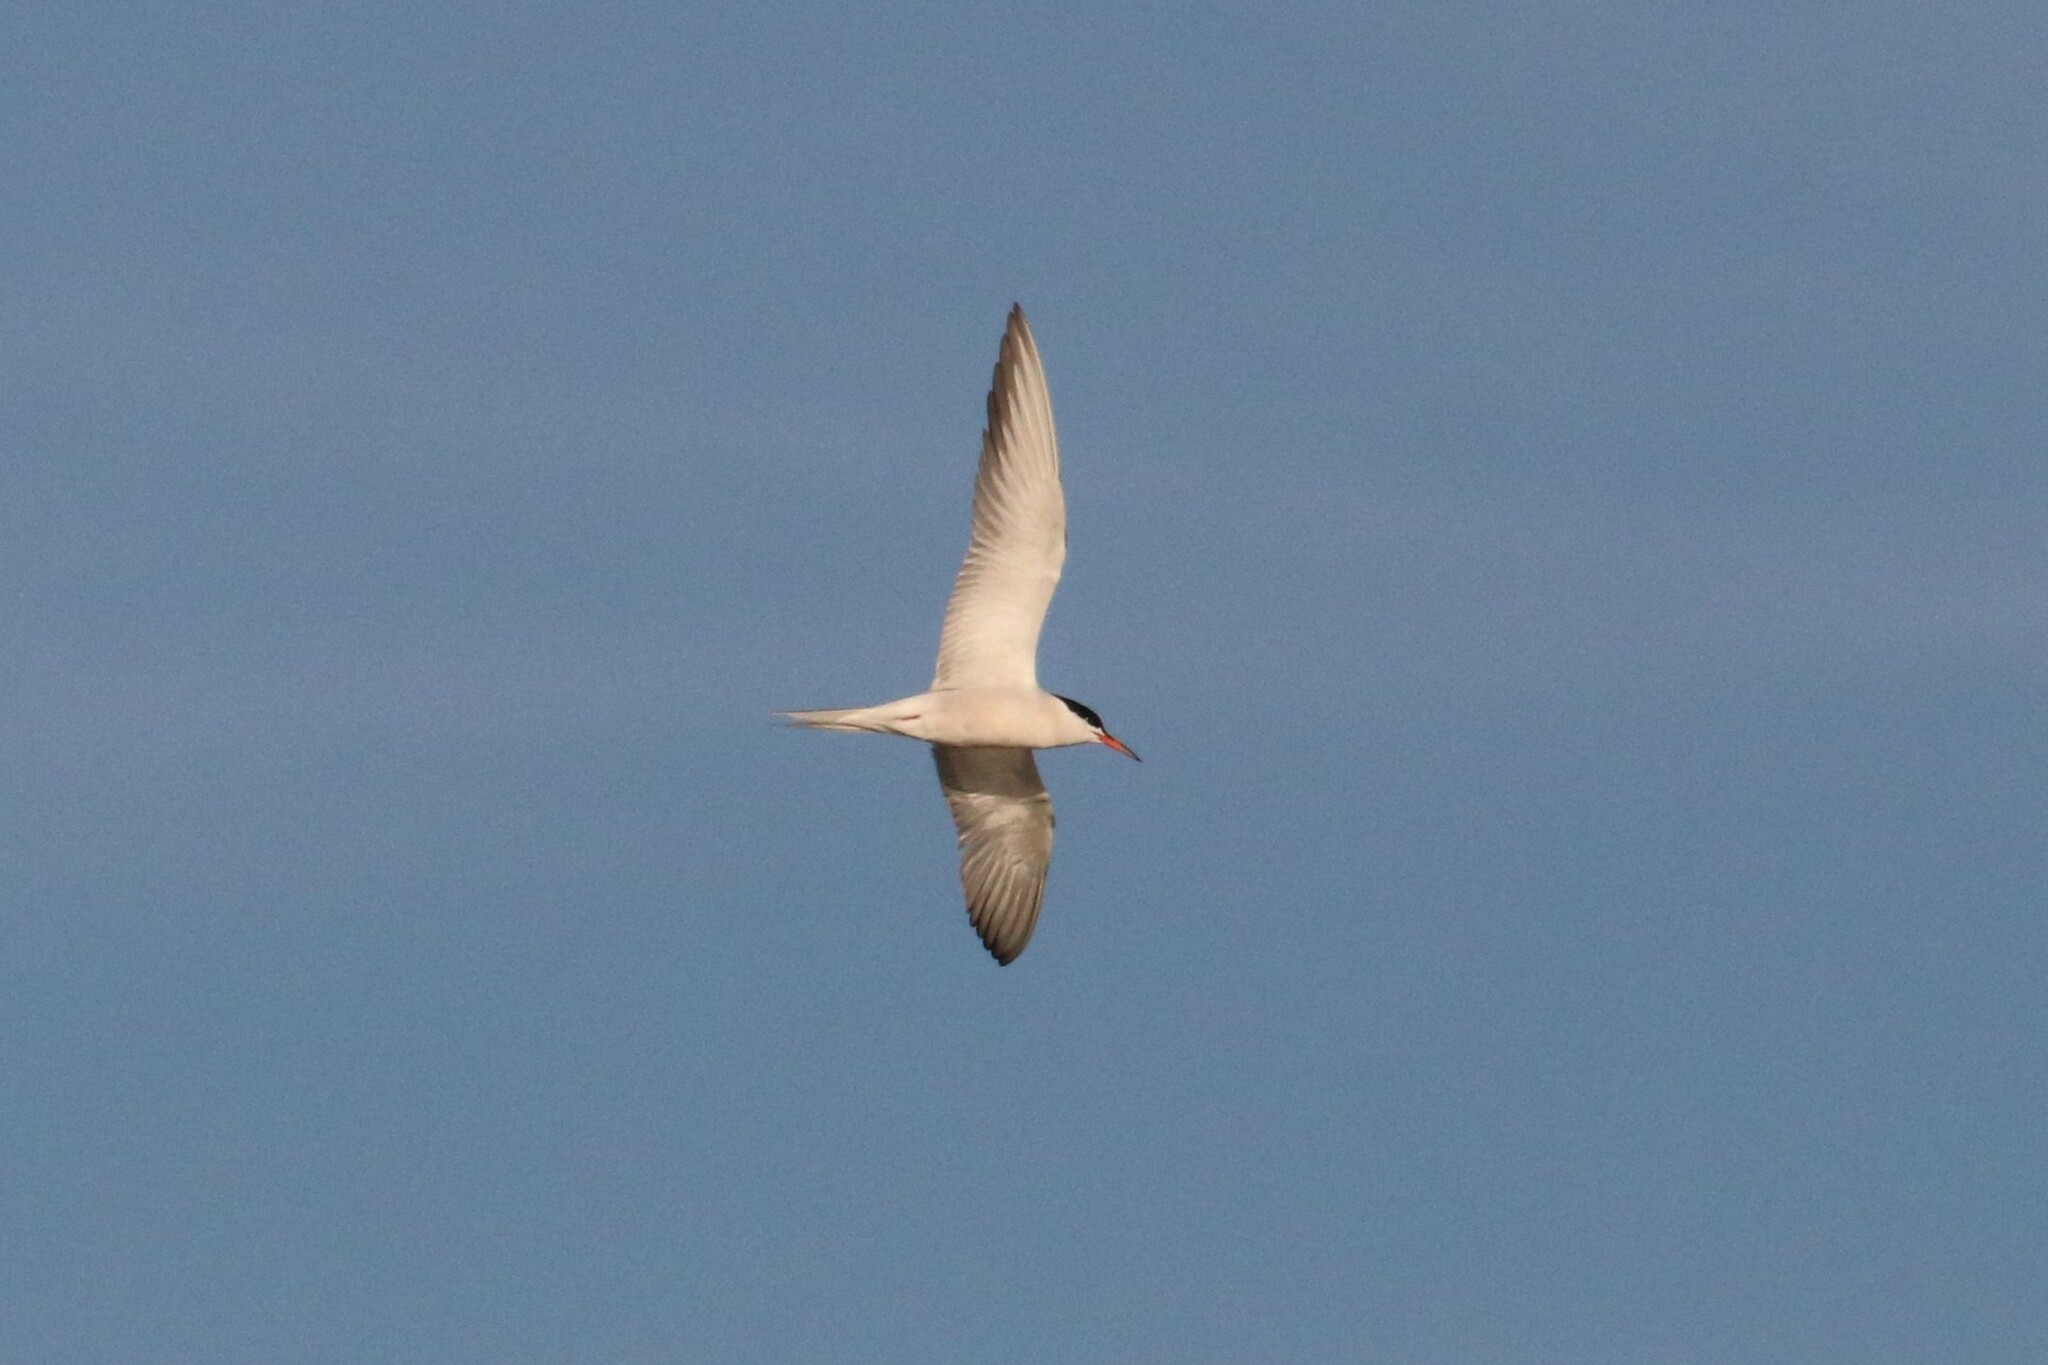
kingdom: Animalia
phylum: Chordata
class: Aves
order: Charadriiformes
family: Laridae
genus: Sterna
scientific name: Sterna hirundo
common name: Common tern
